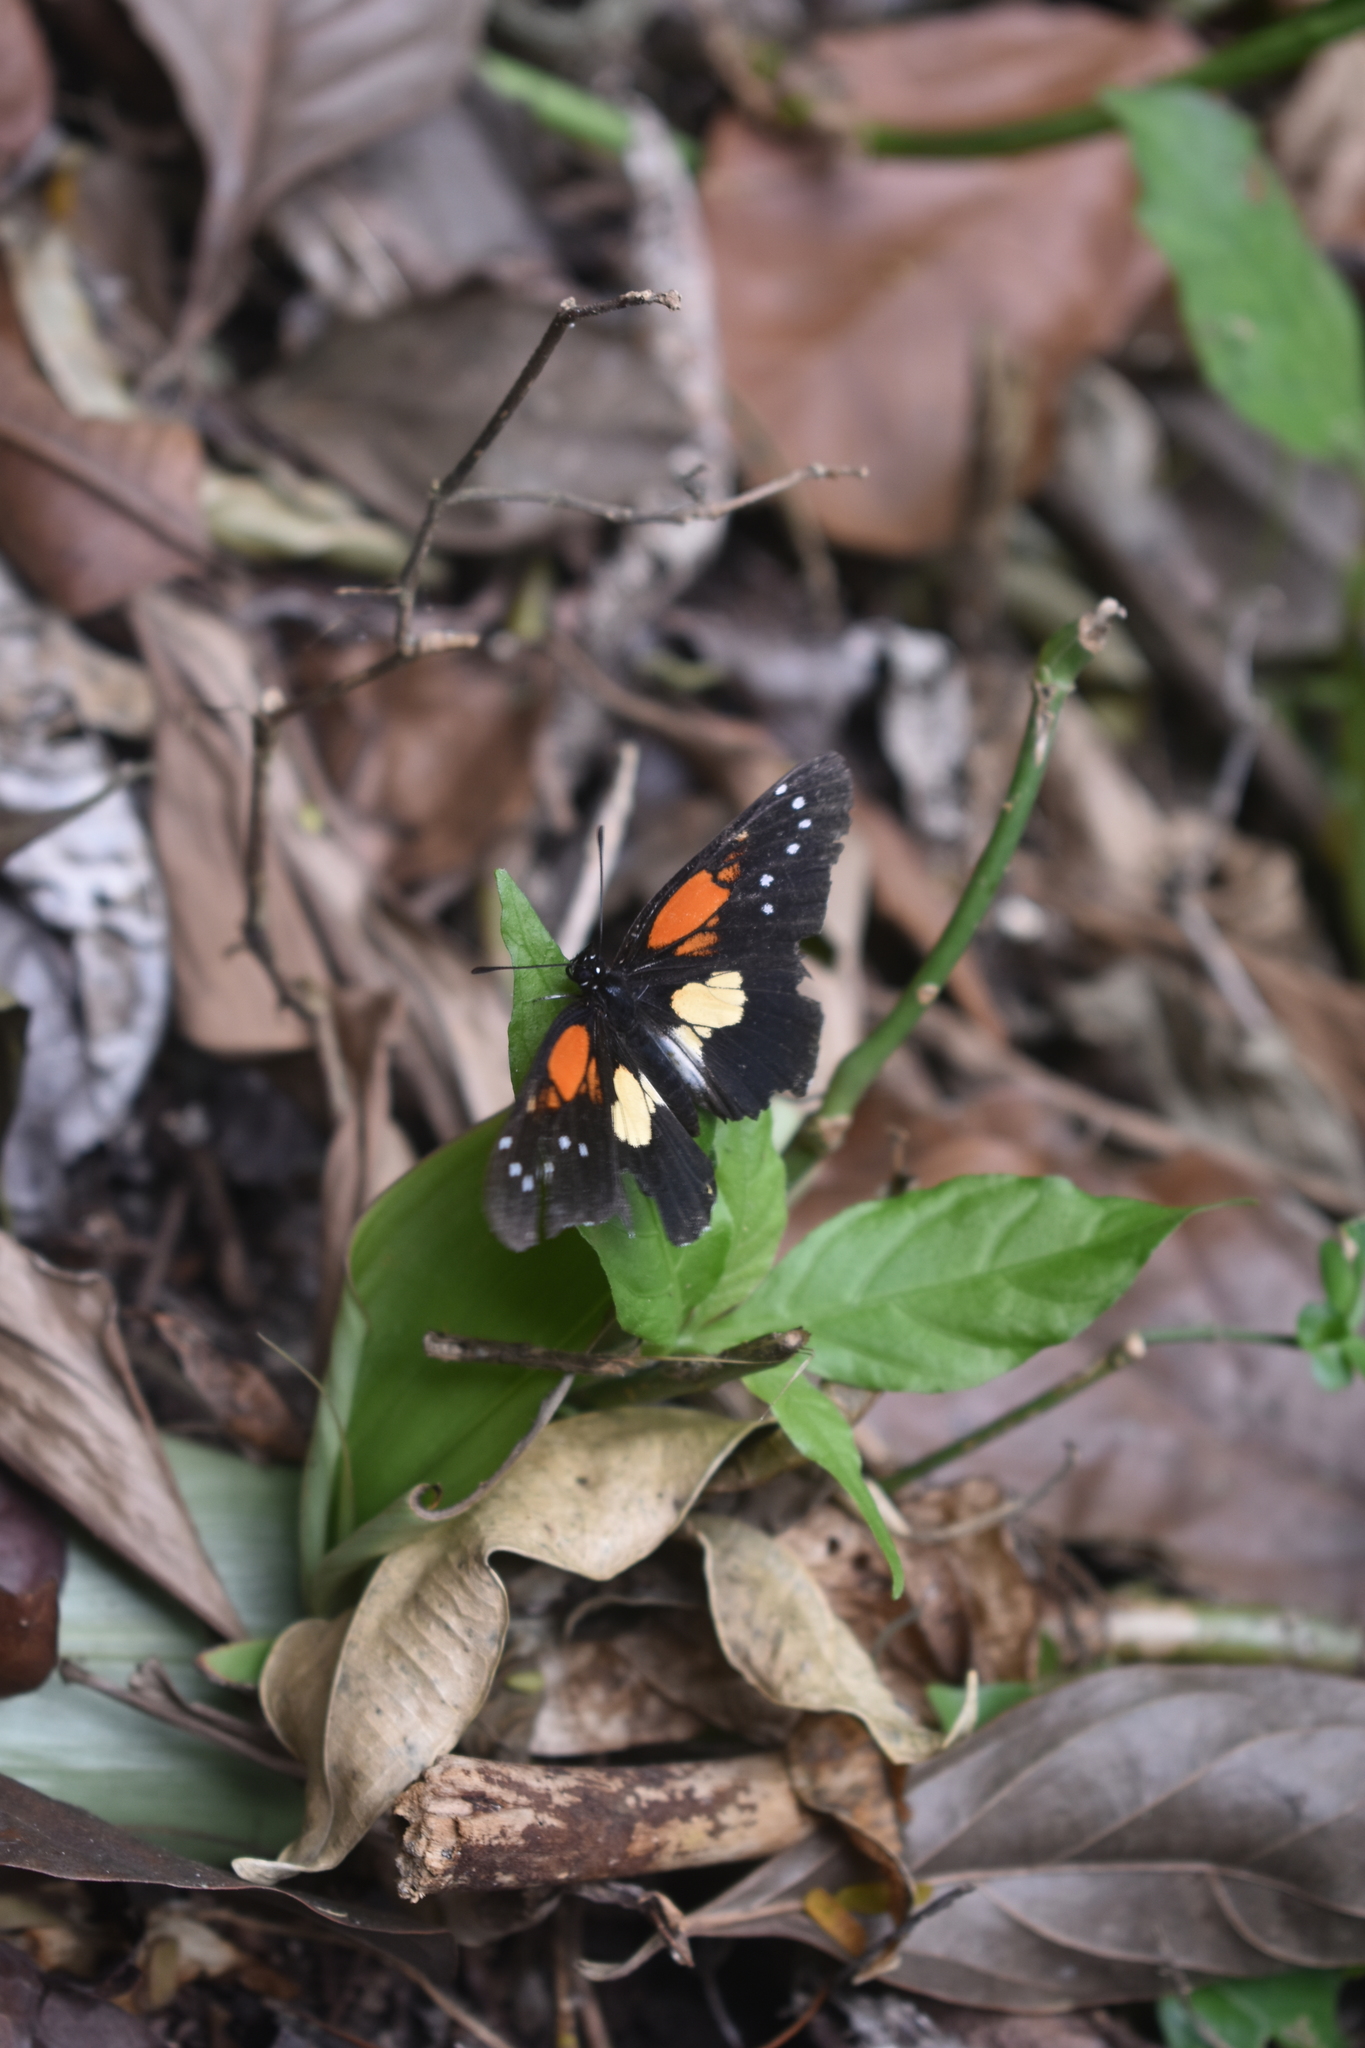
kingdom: Animalia
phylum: Arthropoda
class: Insecta
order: Lepidoptera
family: Nymphalidae
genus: Chlosyne
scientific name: Chlosyne gaudialis
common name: Gaudy checkerspot
